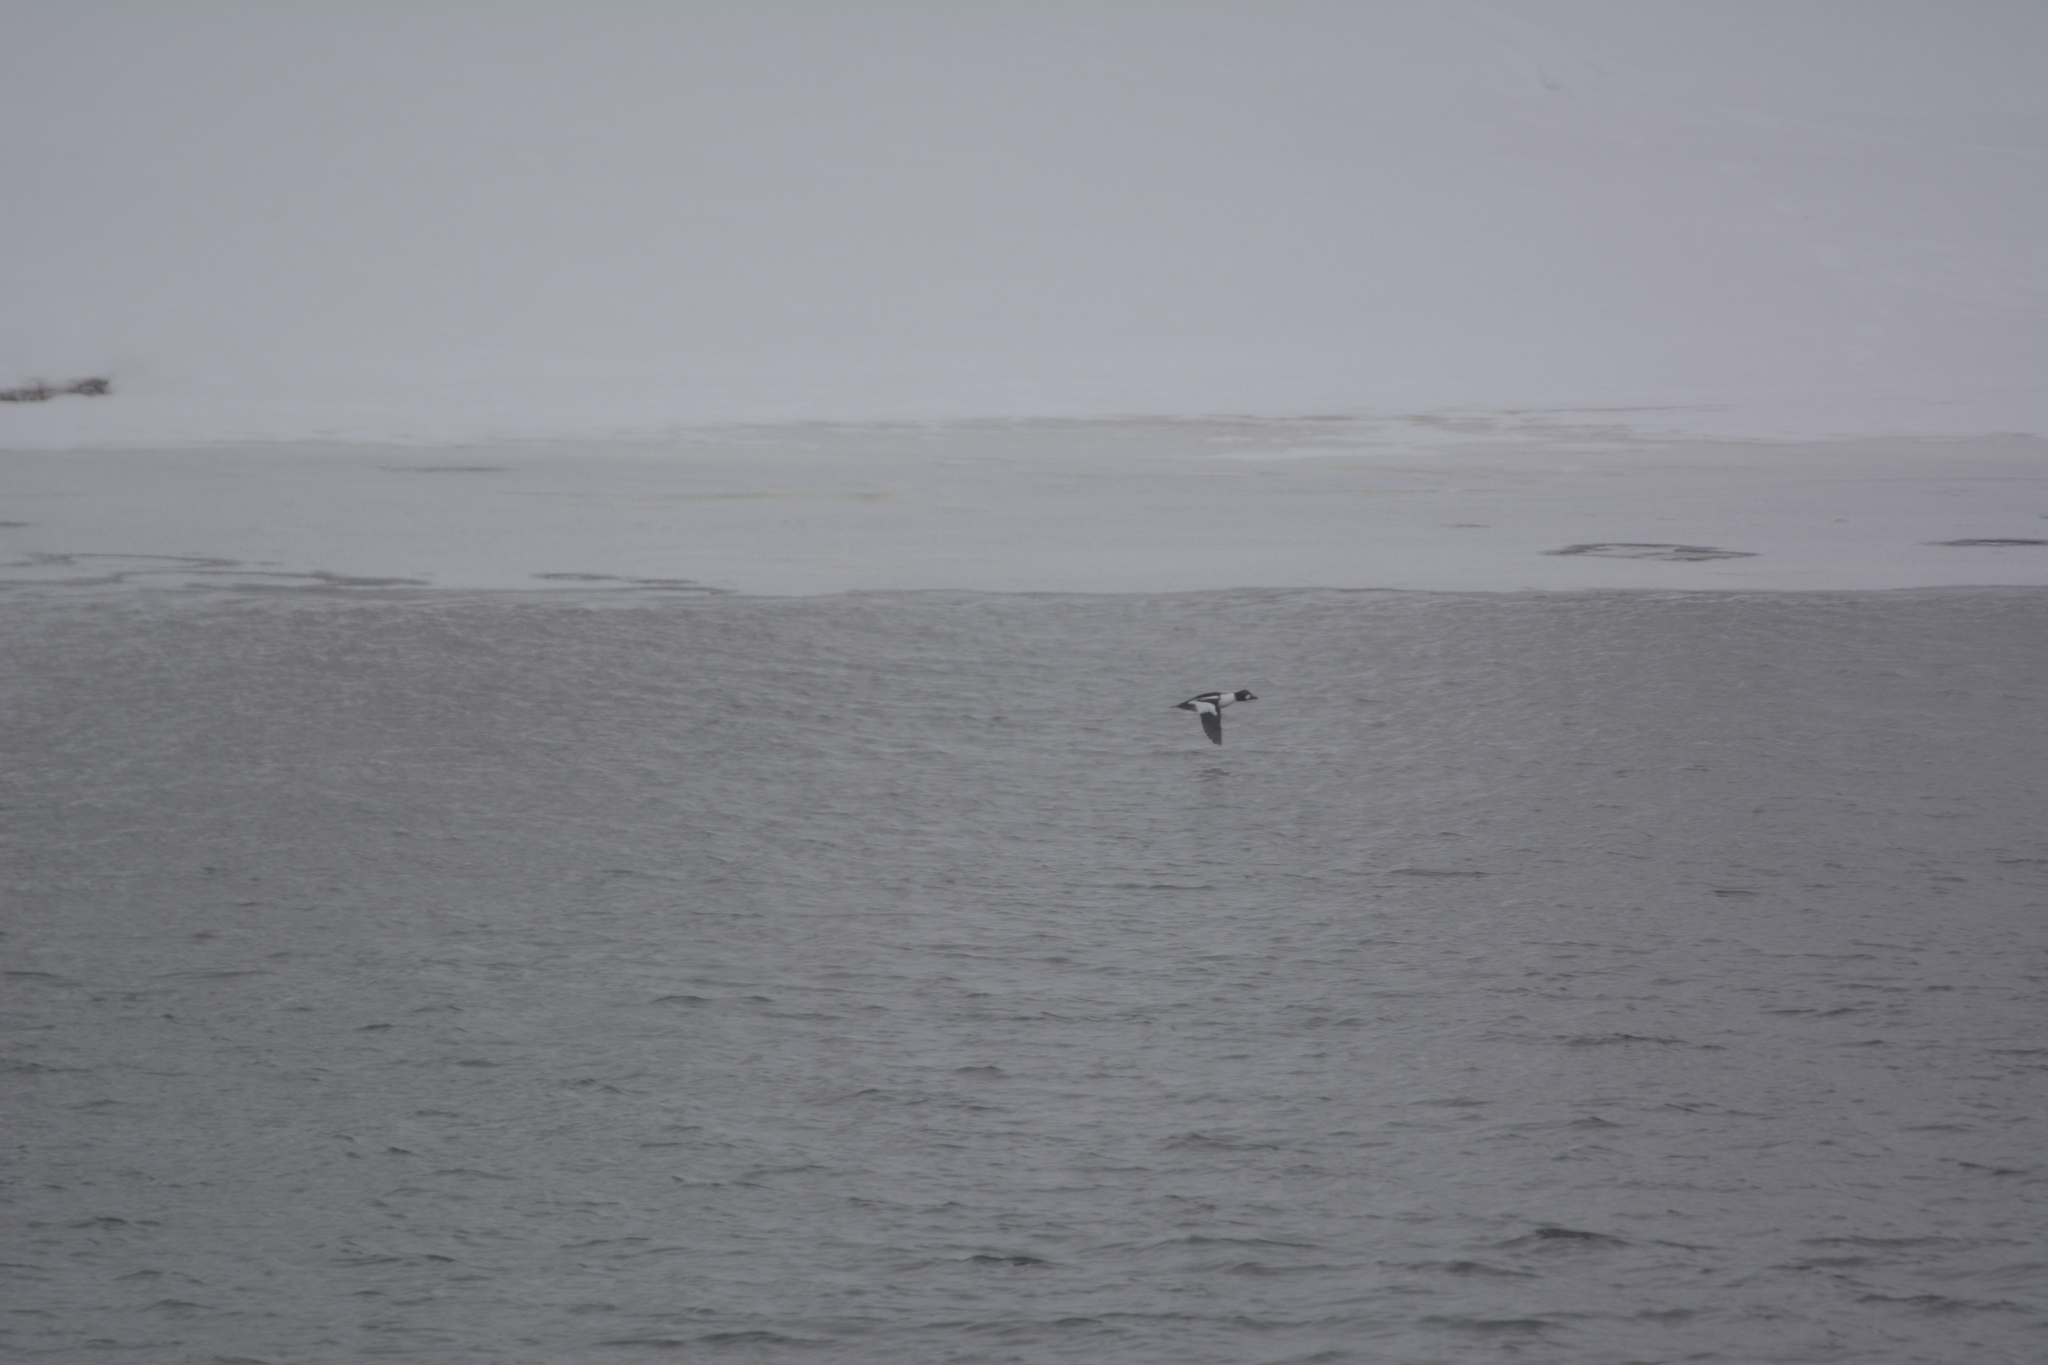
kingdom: Animalia
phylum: Chordata
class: Aves
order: Anseriformes
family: Anatidae
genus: Bucephala
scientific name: Bucephala clangula
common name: Common goldeneye
